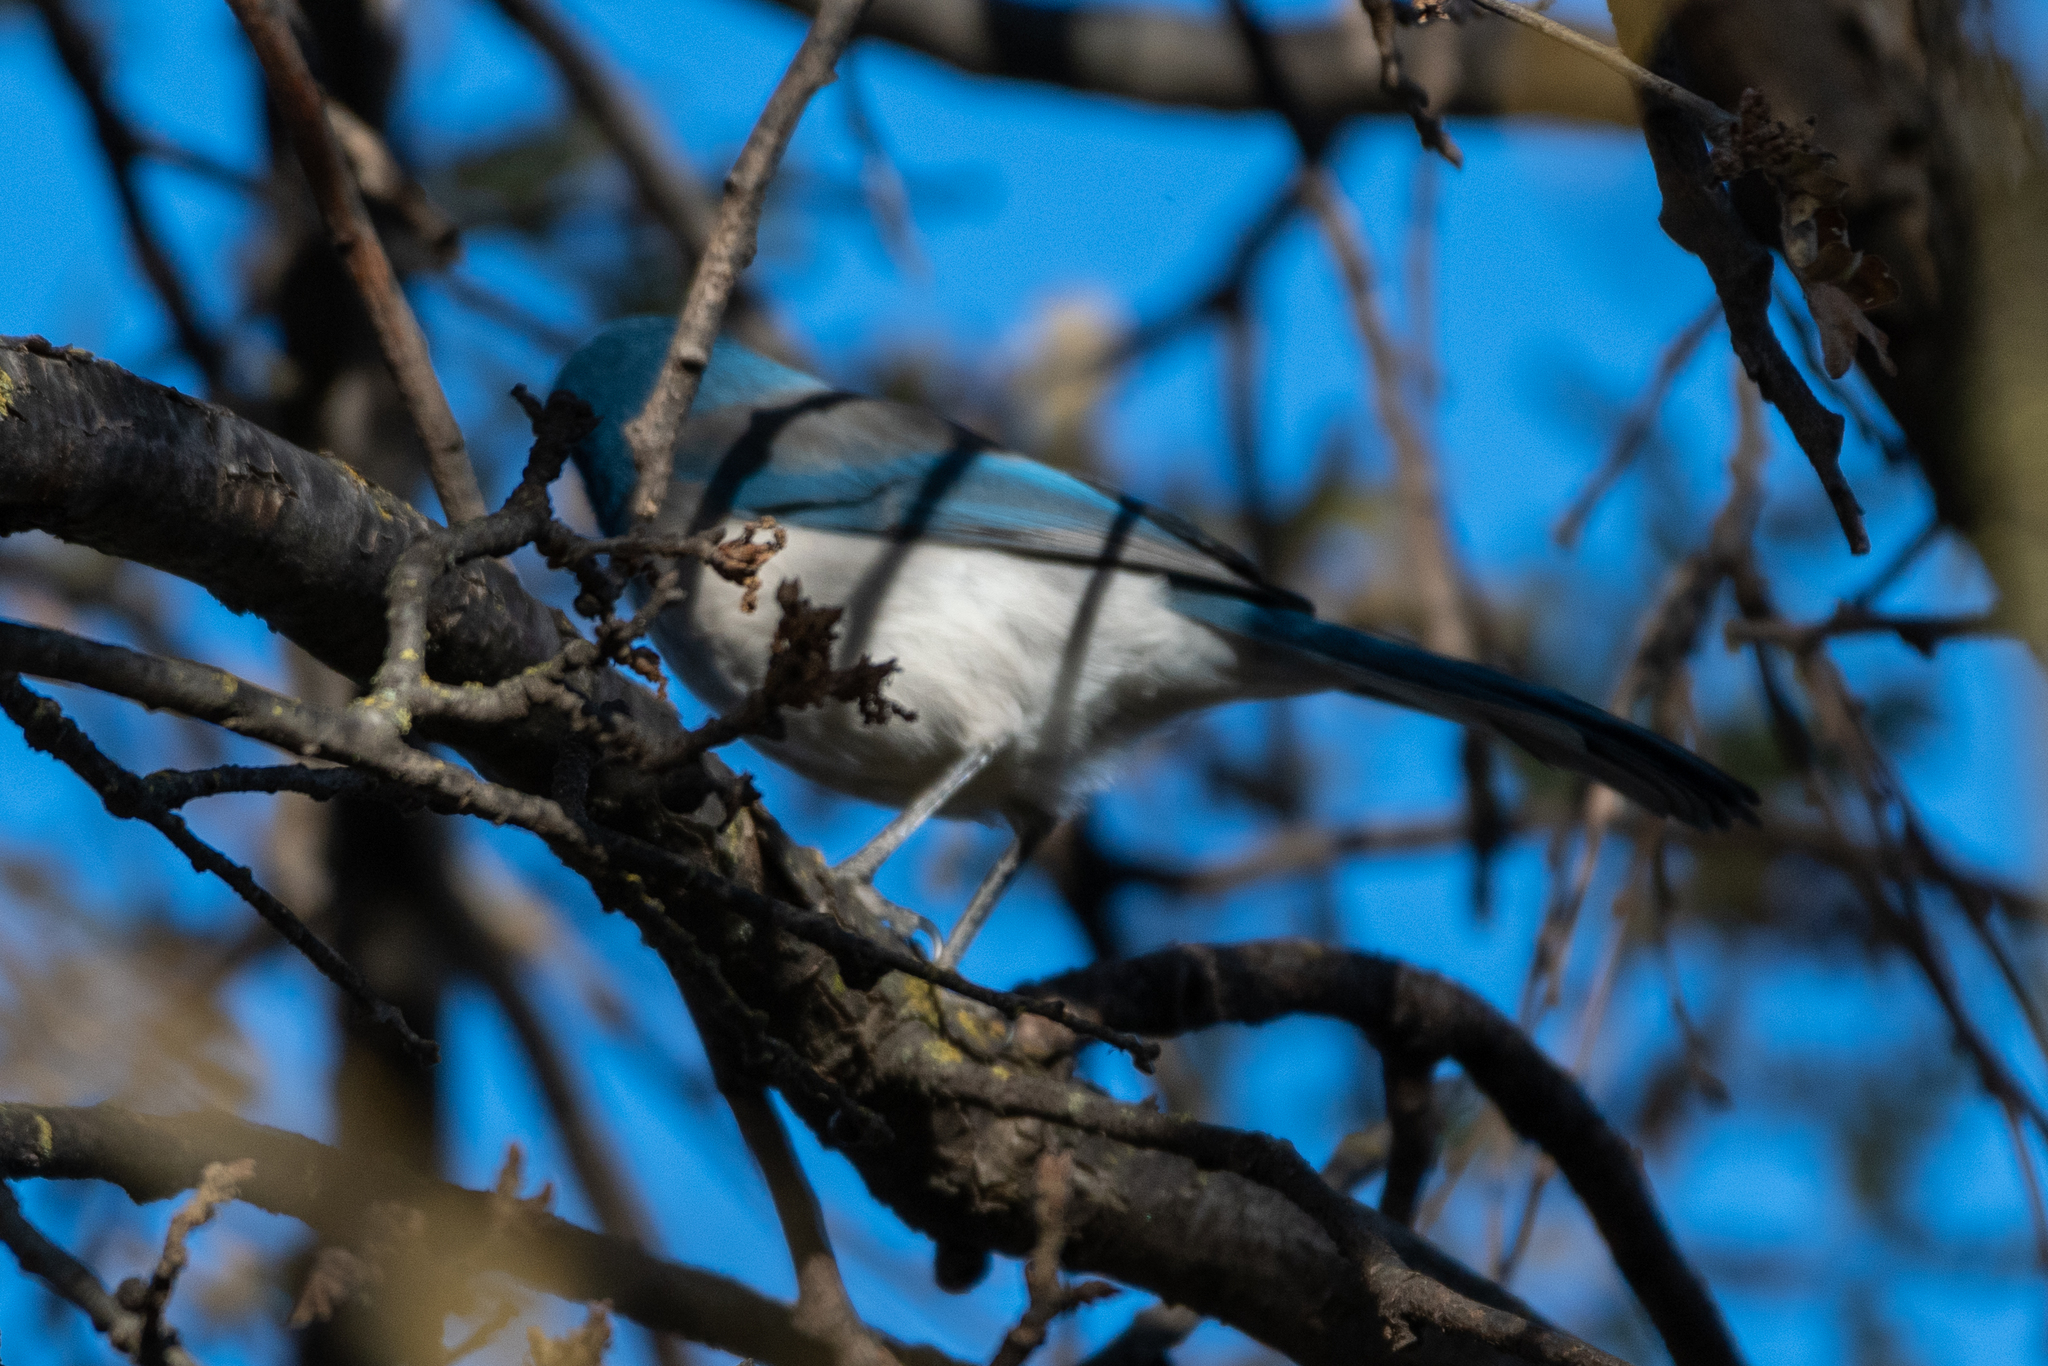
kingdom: Animalia
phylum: Chordata
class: Aves
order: Passeriformes
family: Corvidae
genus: Aphelocoma
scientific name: Aphelocoma californica
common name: California scrub-jay
